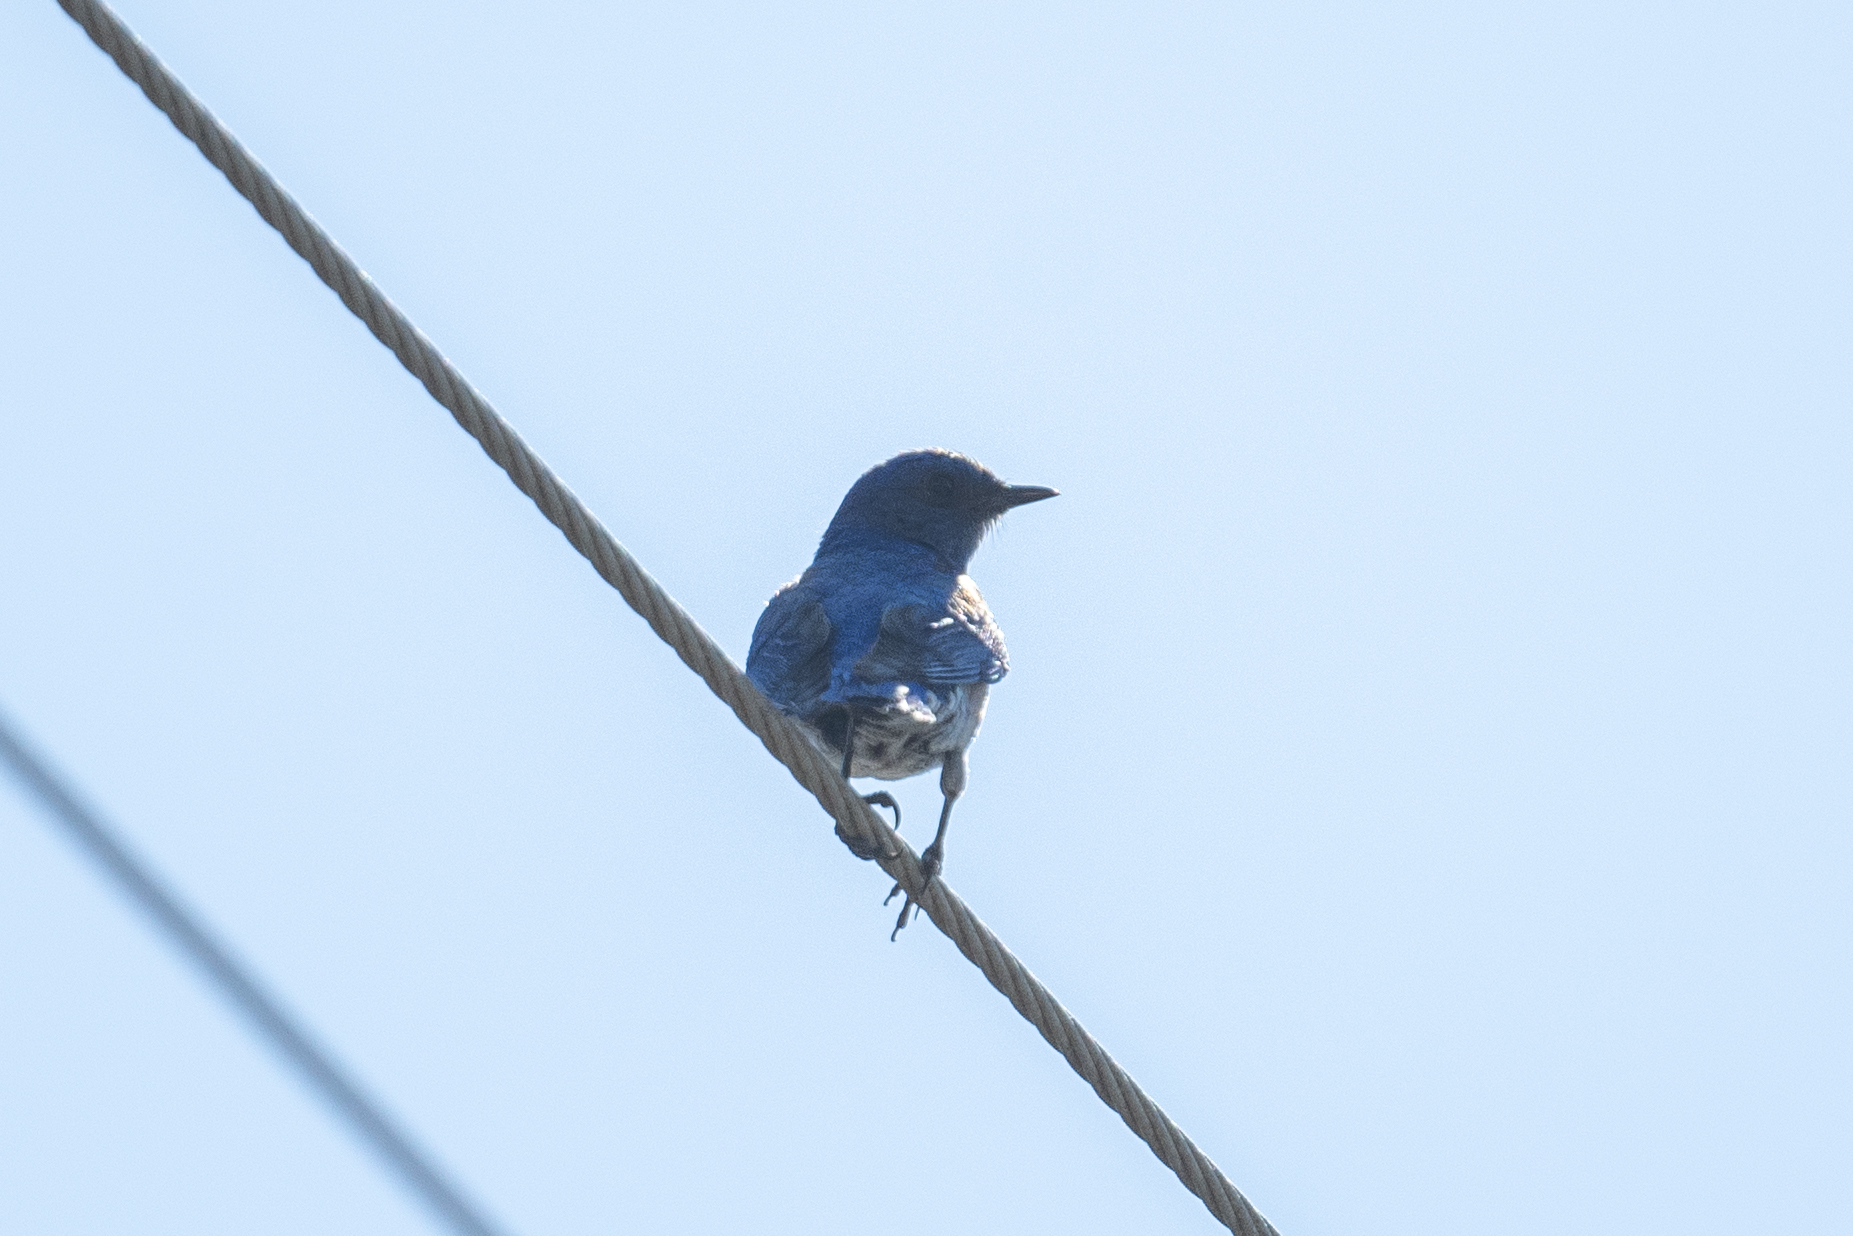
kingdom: Animalia
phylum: Chordata
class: Aves
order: Passeriformes
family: Turdidae
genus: Sialia
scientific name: Sialia mexicana
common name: Western bluebird
